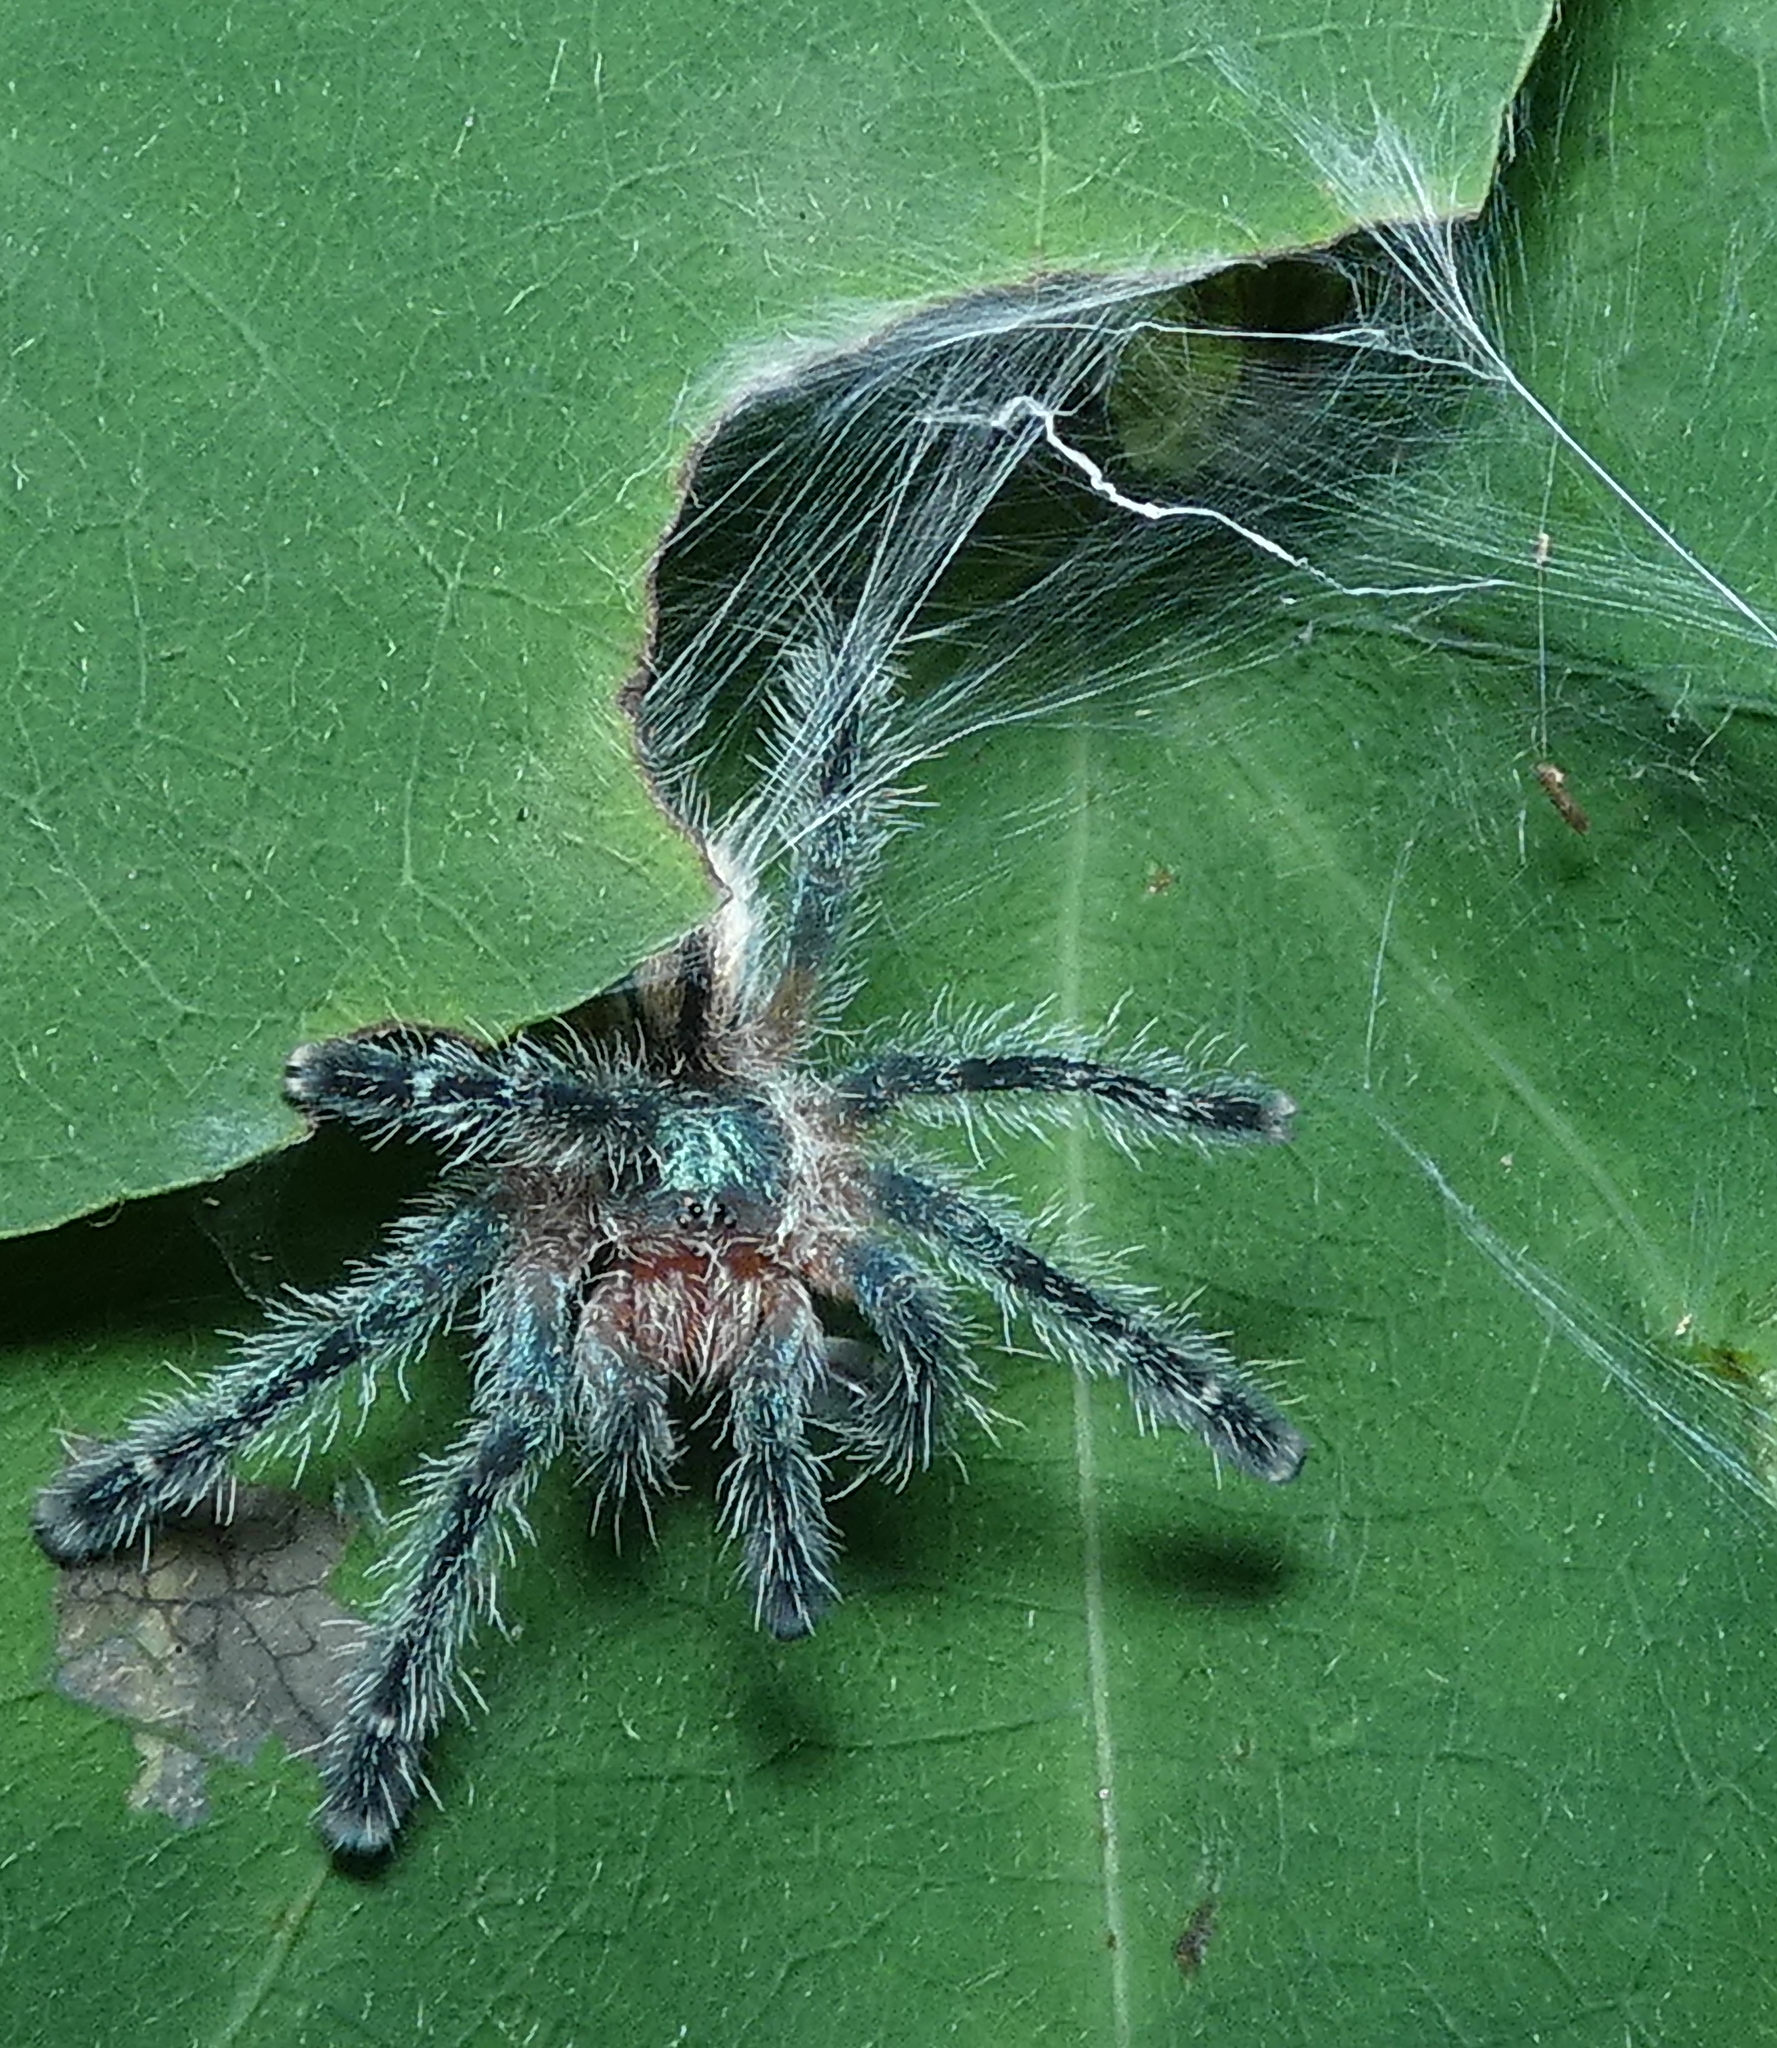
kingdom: Animalia
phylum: Arthropoda
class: Arachnida
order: Araneae
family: Theraphosidae
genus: Iridopelma
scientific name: Iridopelma hirsutum
